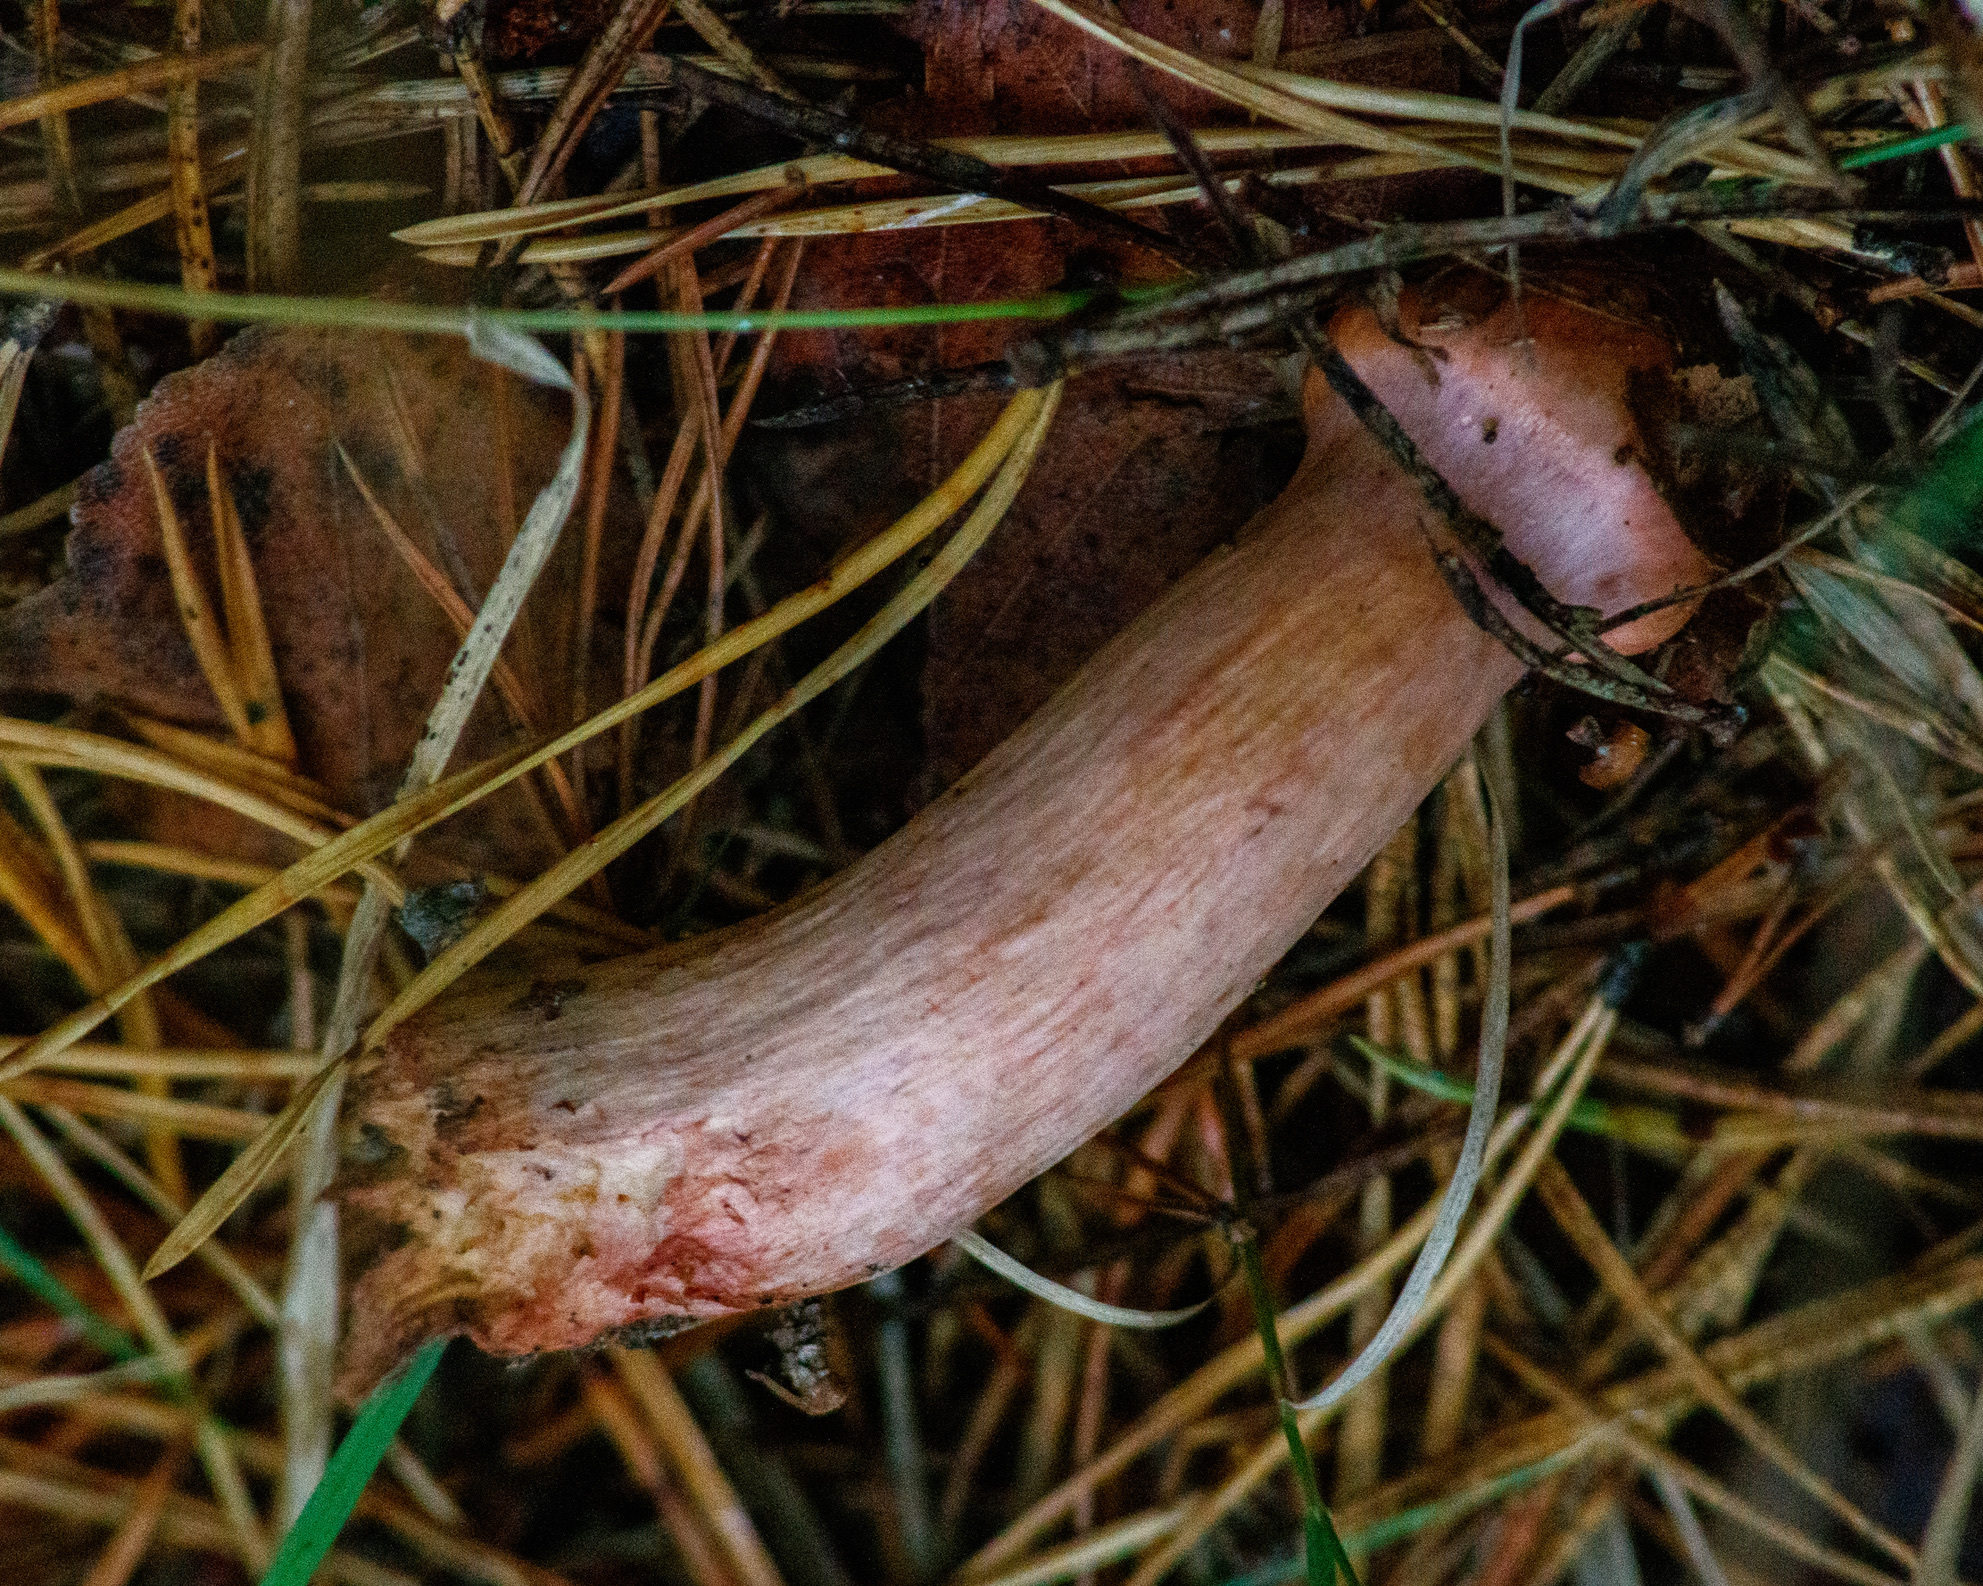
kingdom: Fungi
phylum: Basidiomycota
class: Agaricomycetes
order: Boletales
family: Gomphidiaceae
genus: Chroogomphus
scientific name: Chroogomphus rutilus
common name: Copper spike
